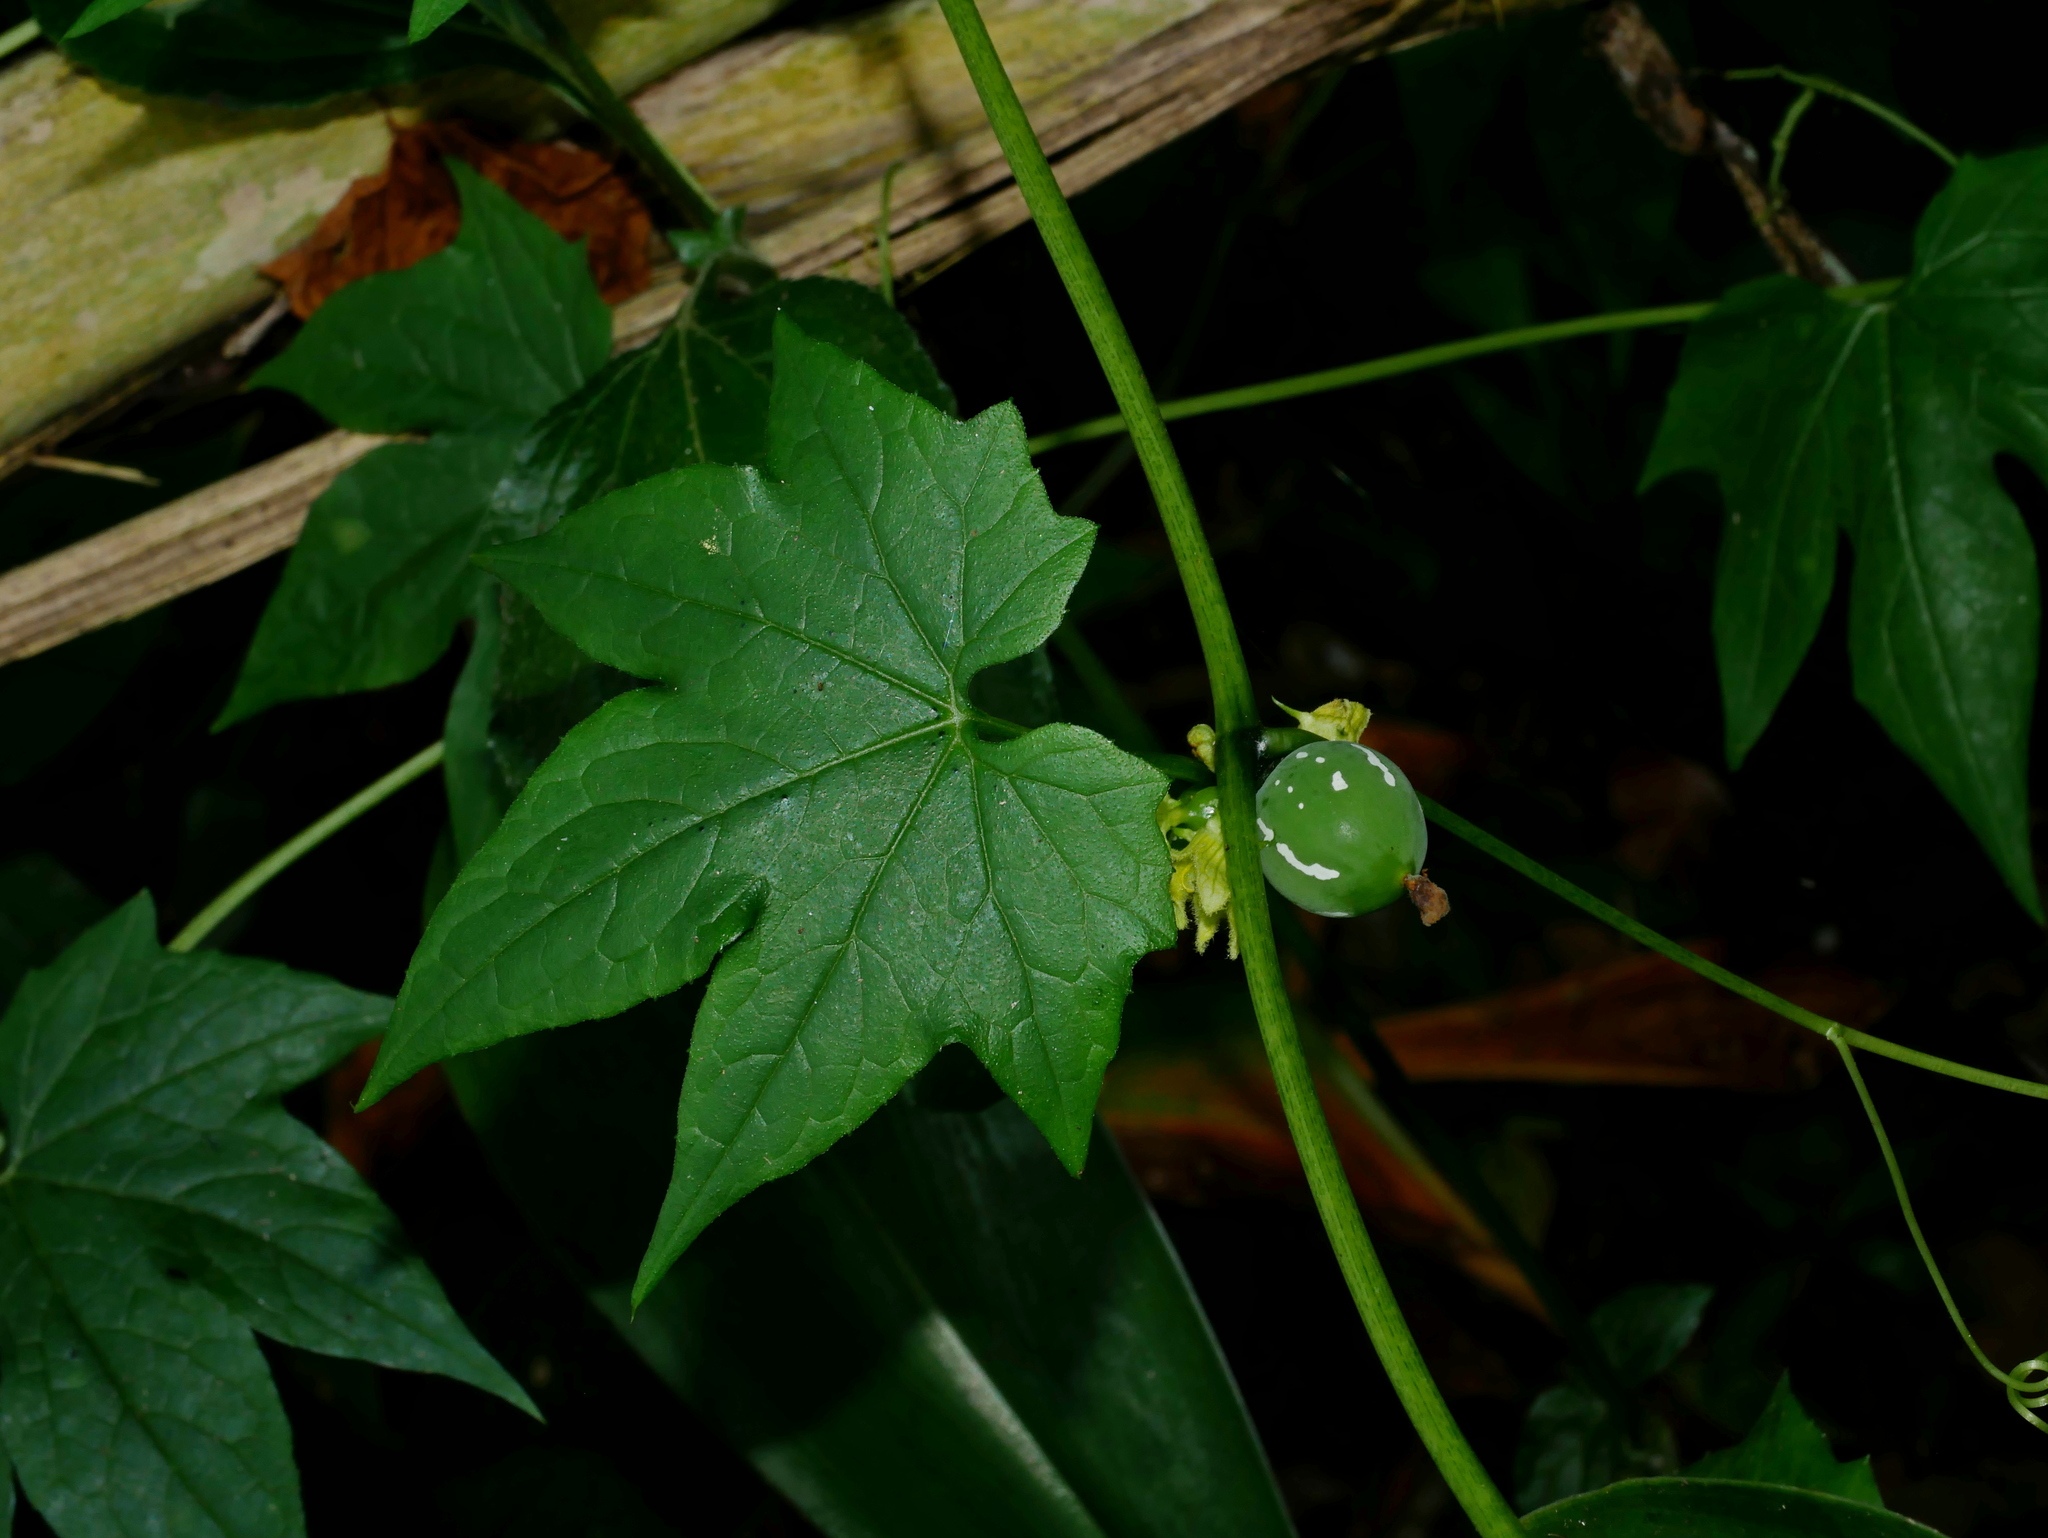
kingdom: Plantae
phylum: Tracheophyta
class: Magnoliopsida
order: Cucurbitales
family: Cucurbitaceae
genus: Diplocyclos
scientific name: Diplocyclos palmatus
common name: Striped-cucumber
